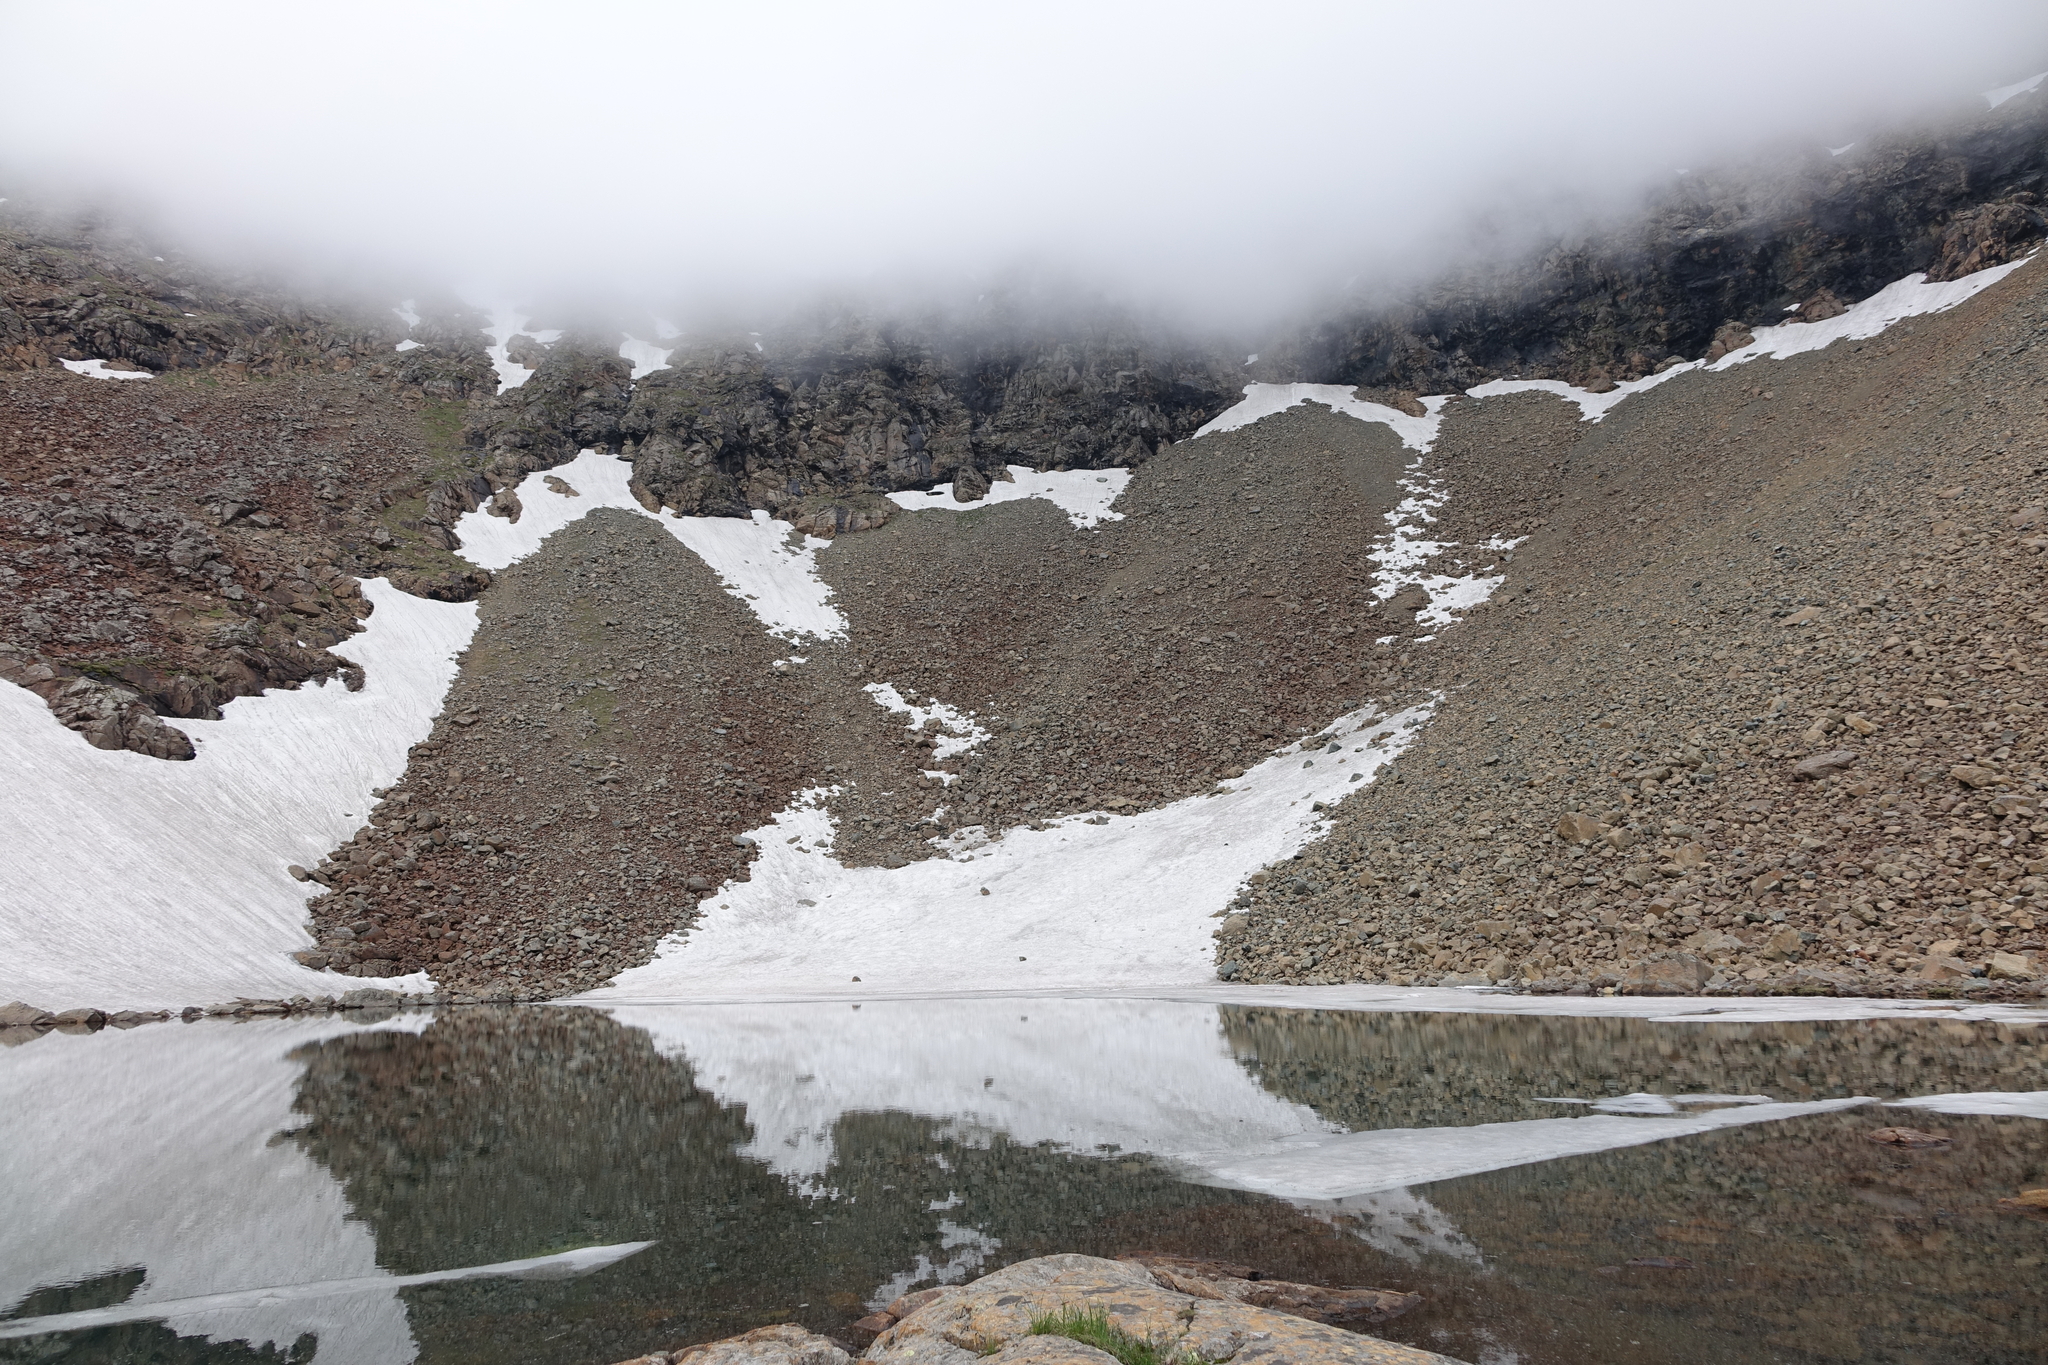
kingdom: Animalia
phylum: Chordata
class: Aves
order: Passeriformes
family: Fringillidae
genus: Leucosticte
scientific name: Leucosticte nemoricola
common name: Plain mountain finch
